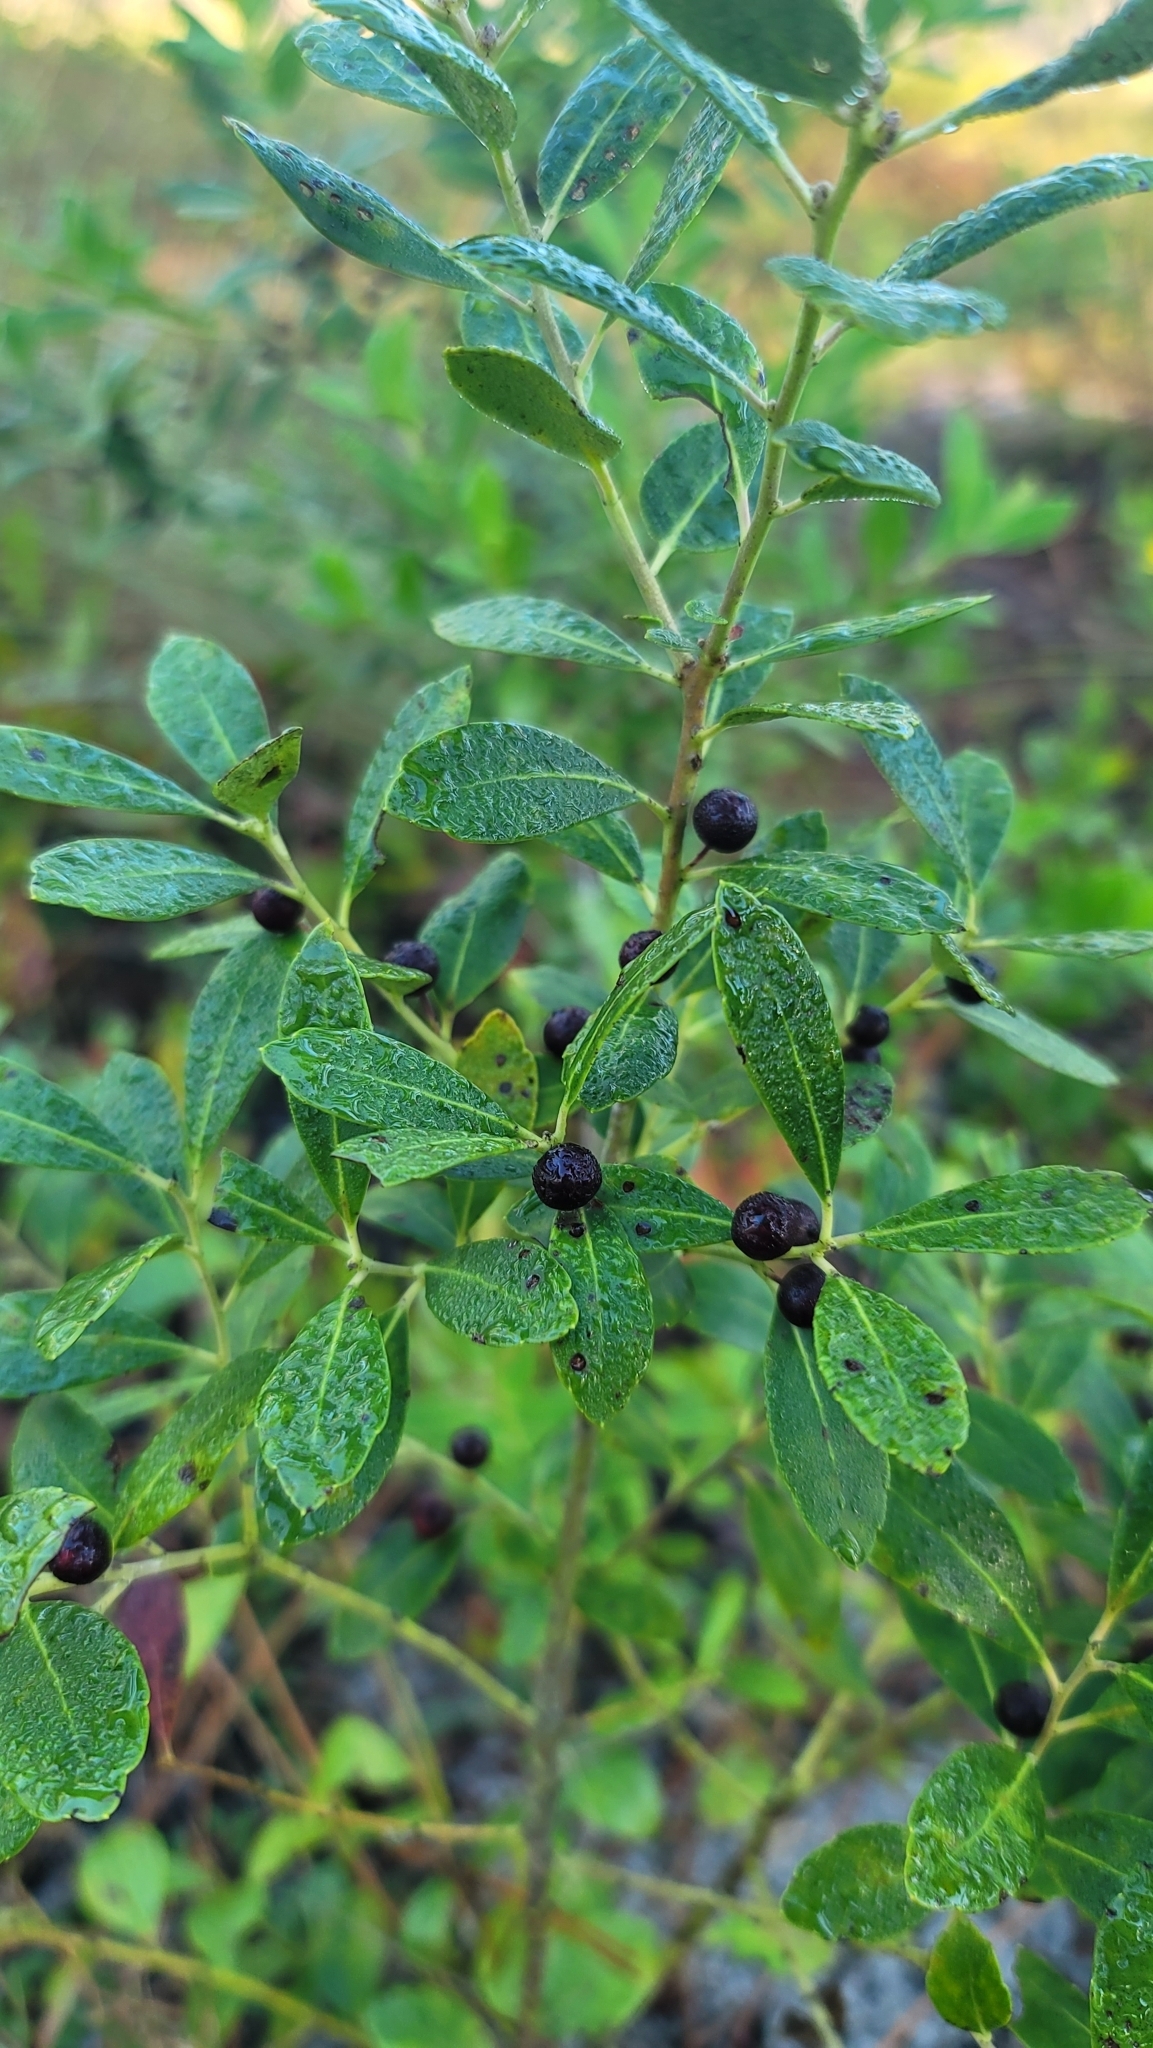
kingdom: Plantae
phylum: Tracheophyta
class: Magnoliopsida
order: Aquifoliales
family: Aquifoliaceae
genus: Ilex
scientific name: Ilex glabra
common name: Bitter gallberry
